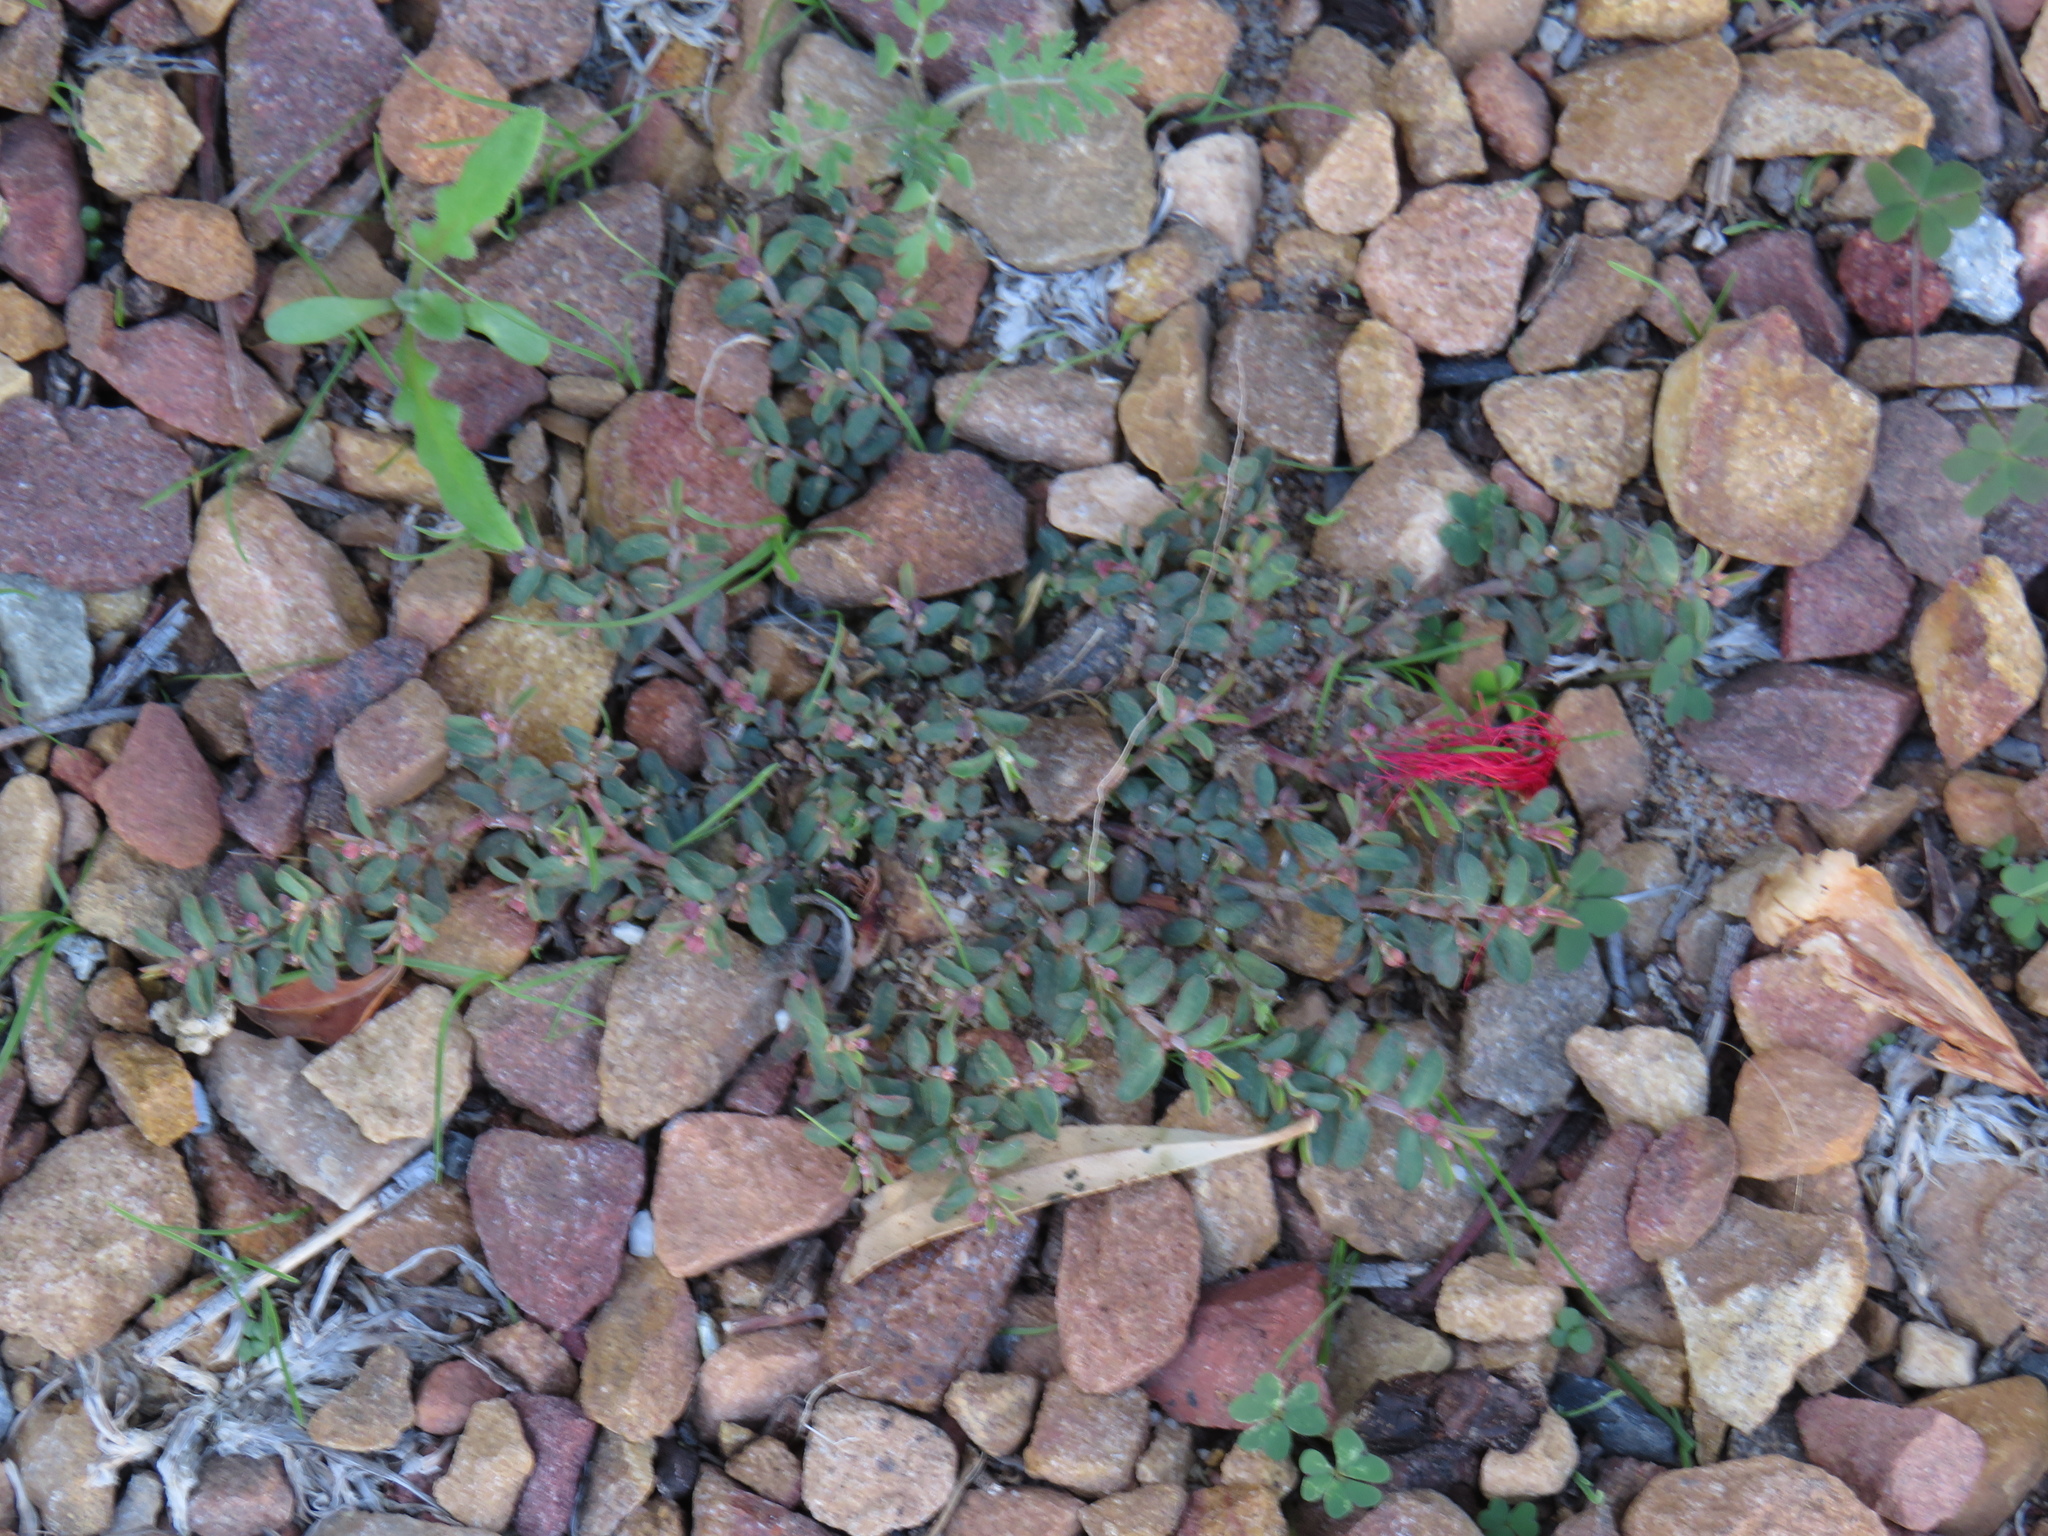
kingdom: Plantae
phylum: Tracheophyta
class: Magnoliopsida
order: Malpighiales
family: Euphorbiaceae
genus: Euphorbia
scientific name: Euphorbia maculata
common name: Spotted spurge
